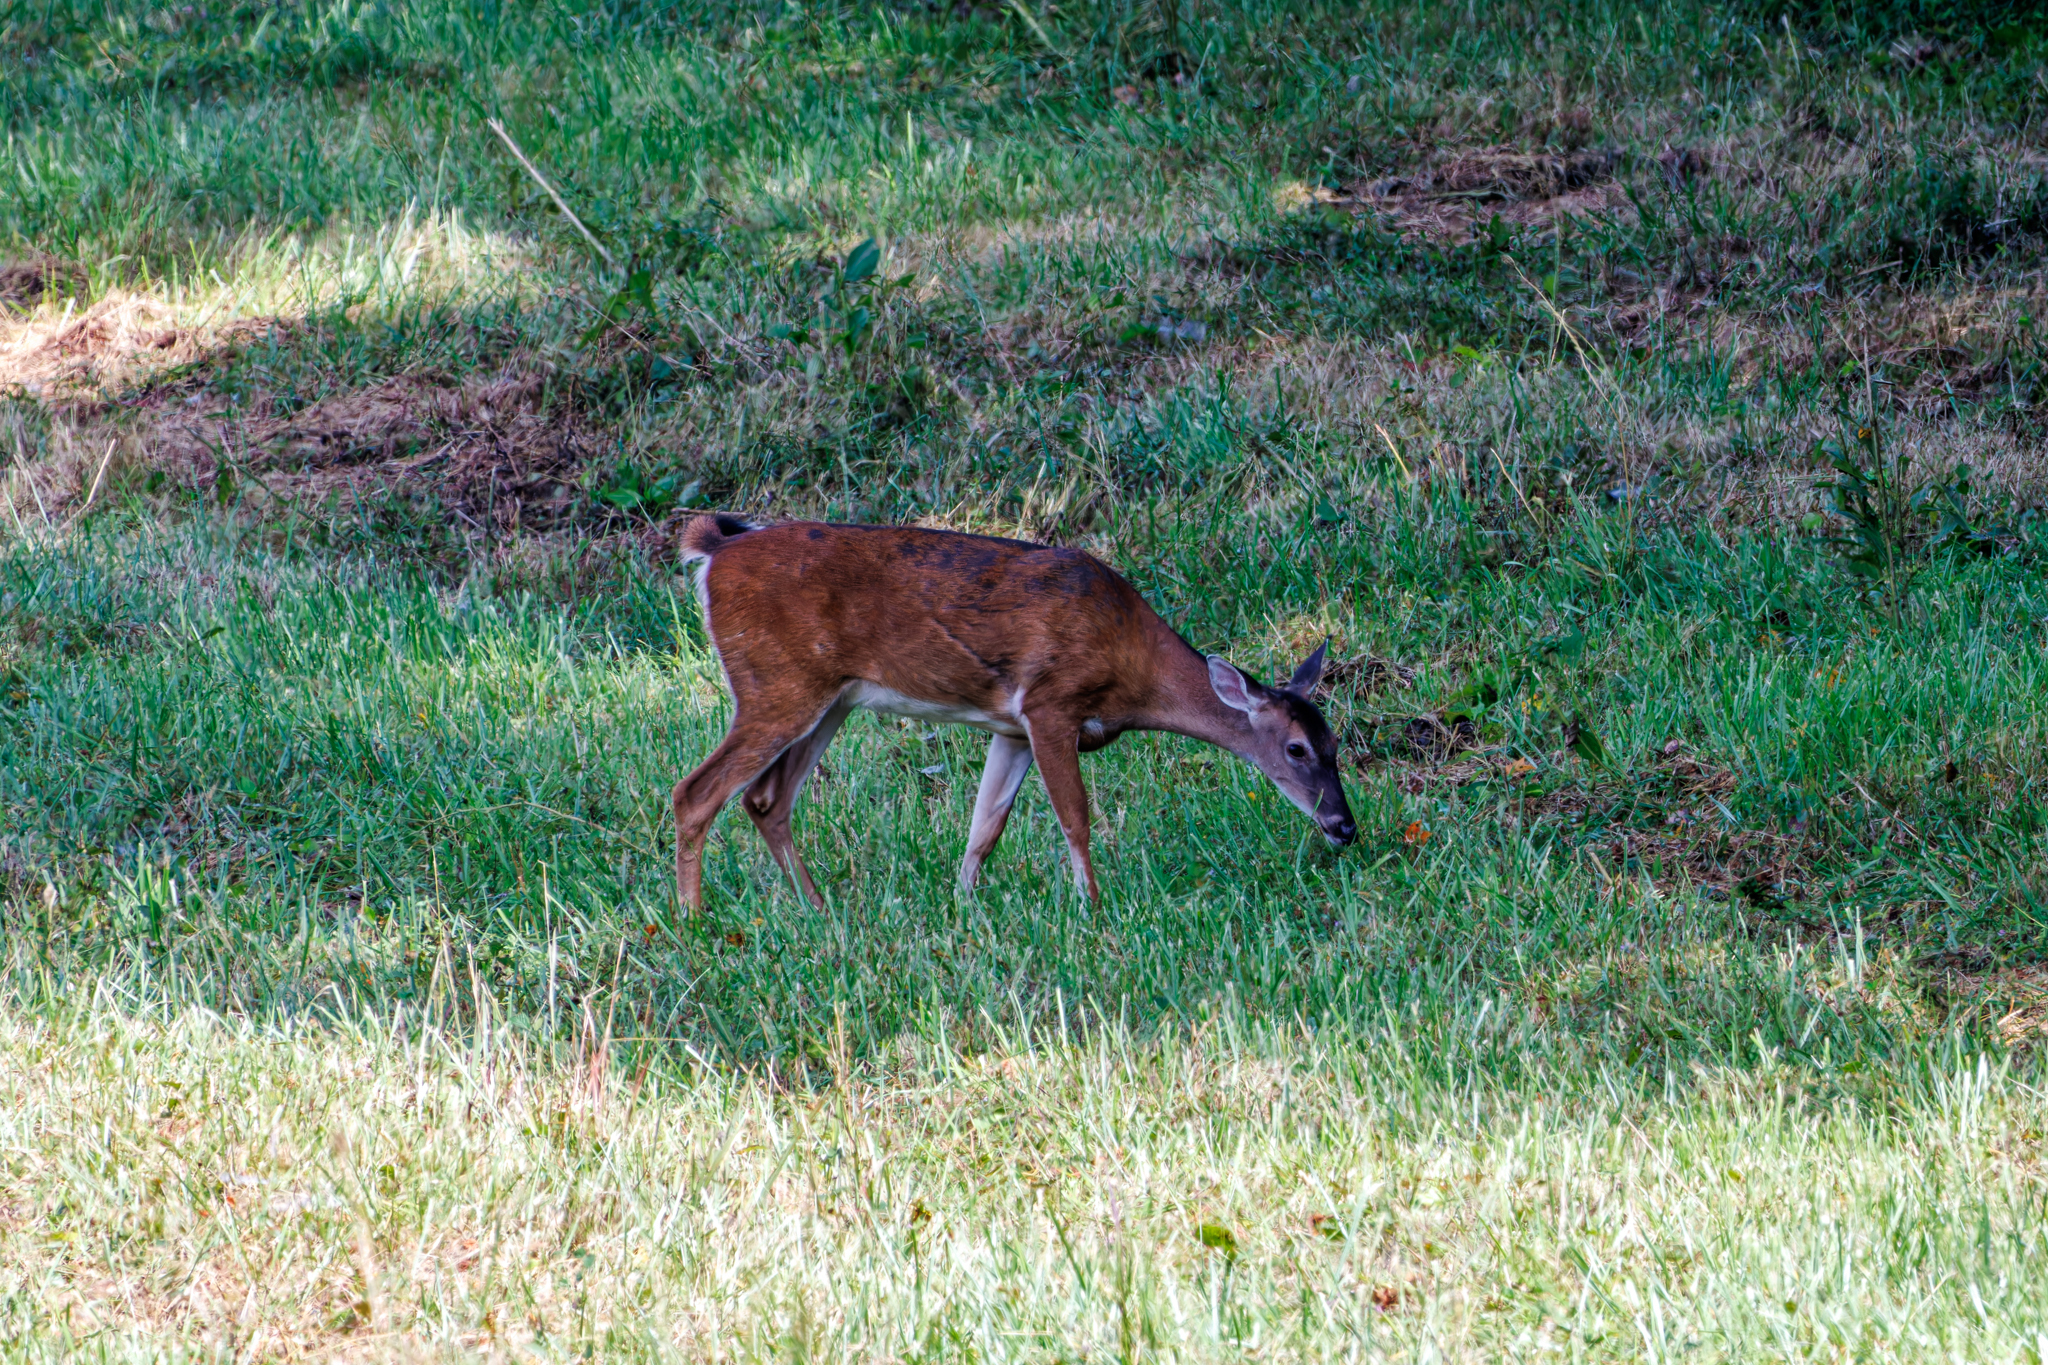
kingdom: Animalia
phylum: Chordata
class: Mammalia
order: Artiodactyla
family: Cervidae
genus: Odocoileus
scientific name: Odocoileus virginianus
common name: White-tailed deer
